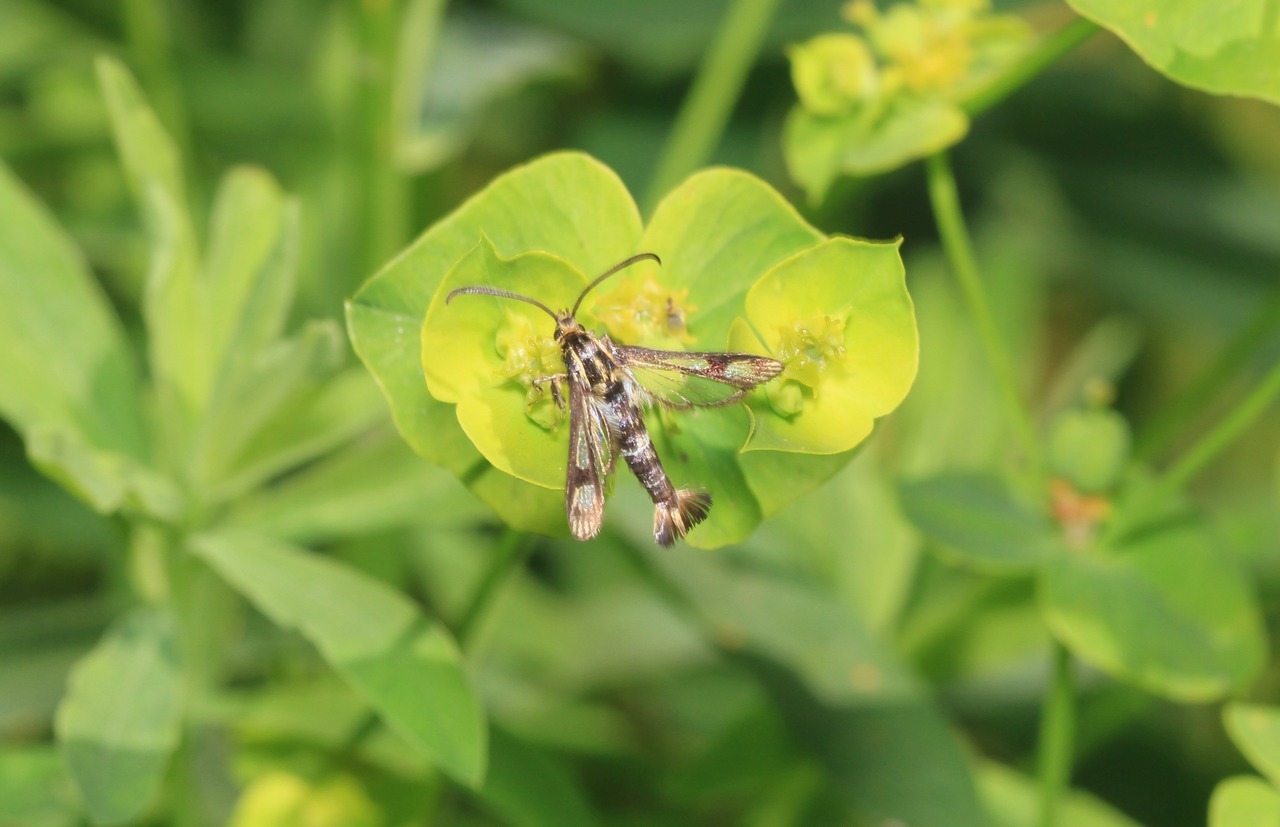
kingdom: Animalia
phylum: Arthropoda
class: Insecta
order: Lepidoptera
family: Sesiidae
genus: Chamaesphecia
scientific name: Chamaesphecia tenthrediniformis
